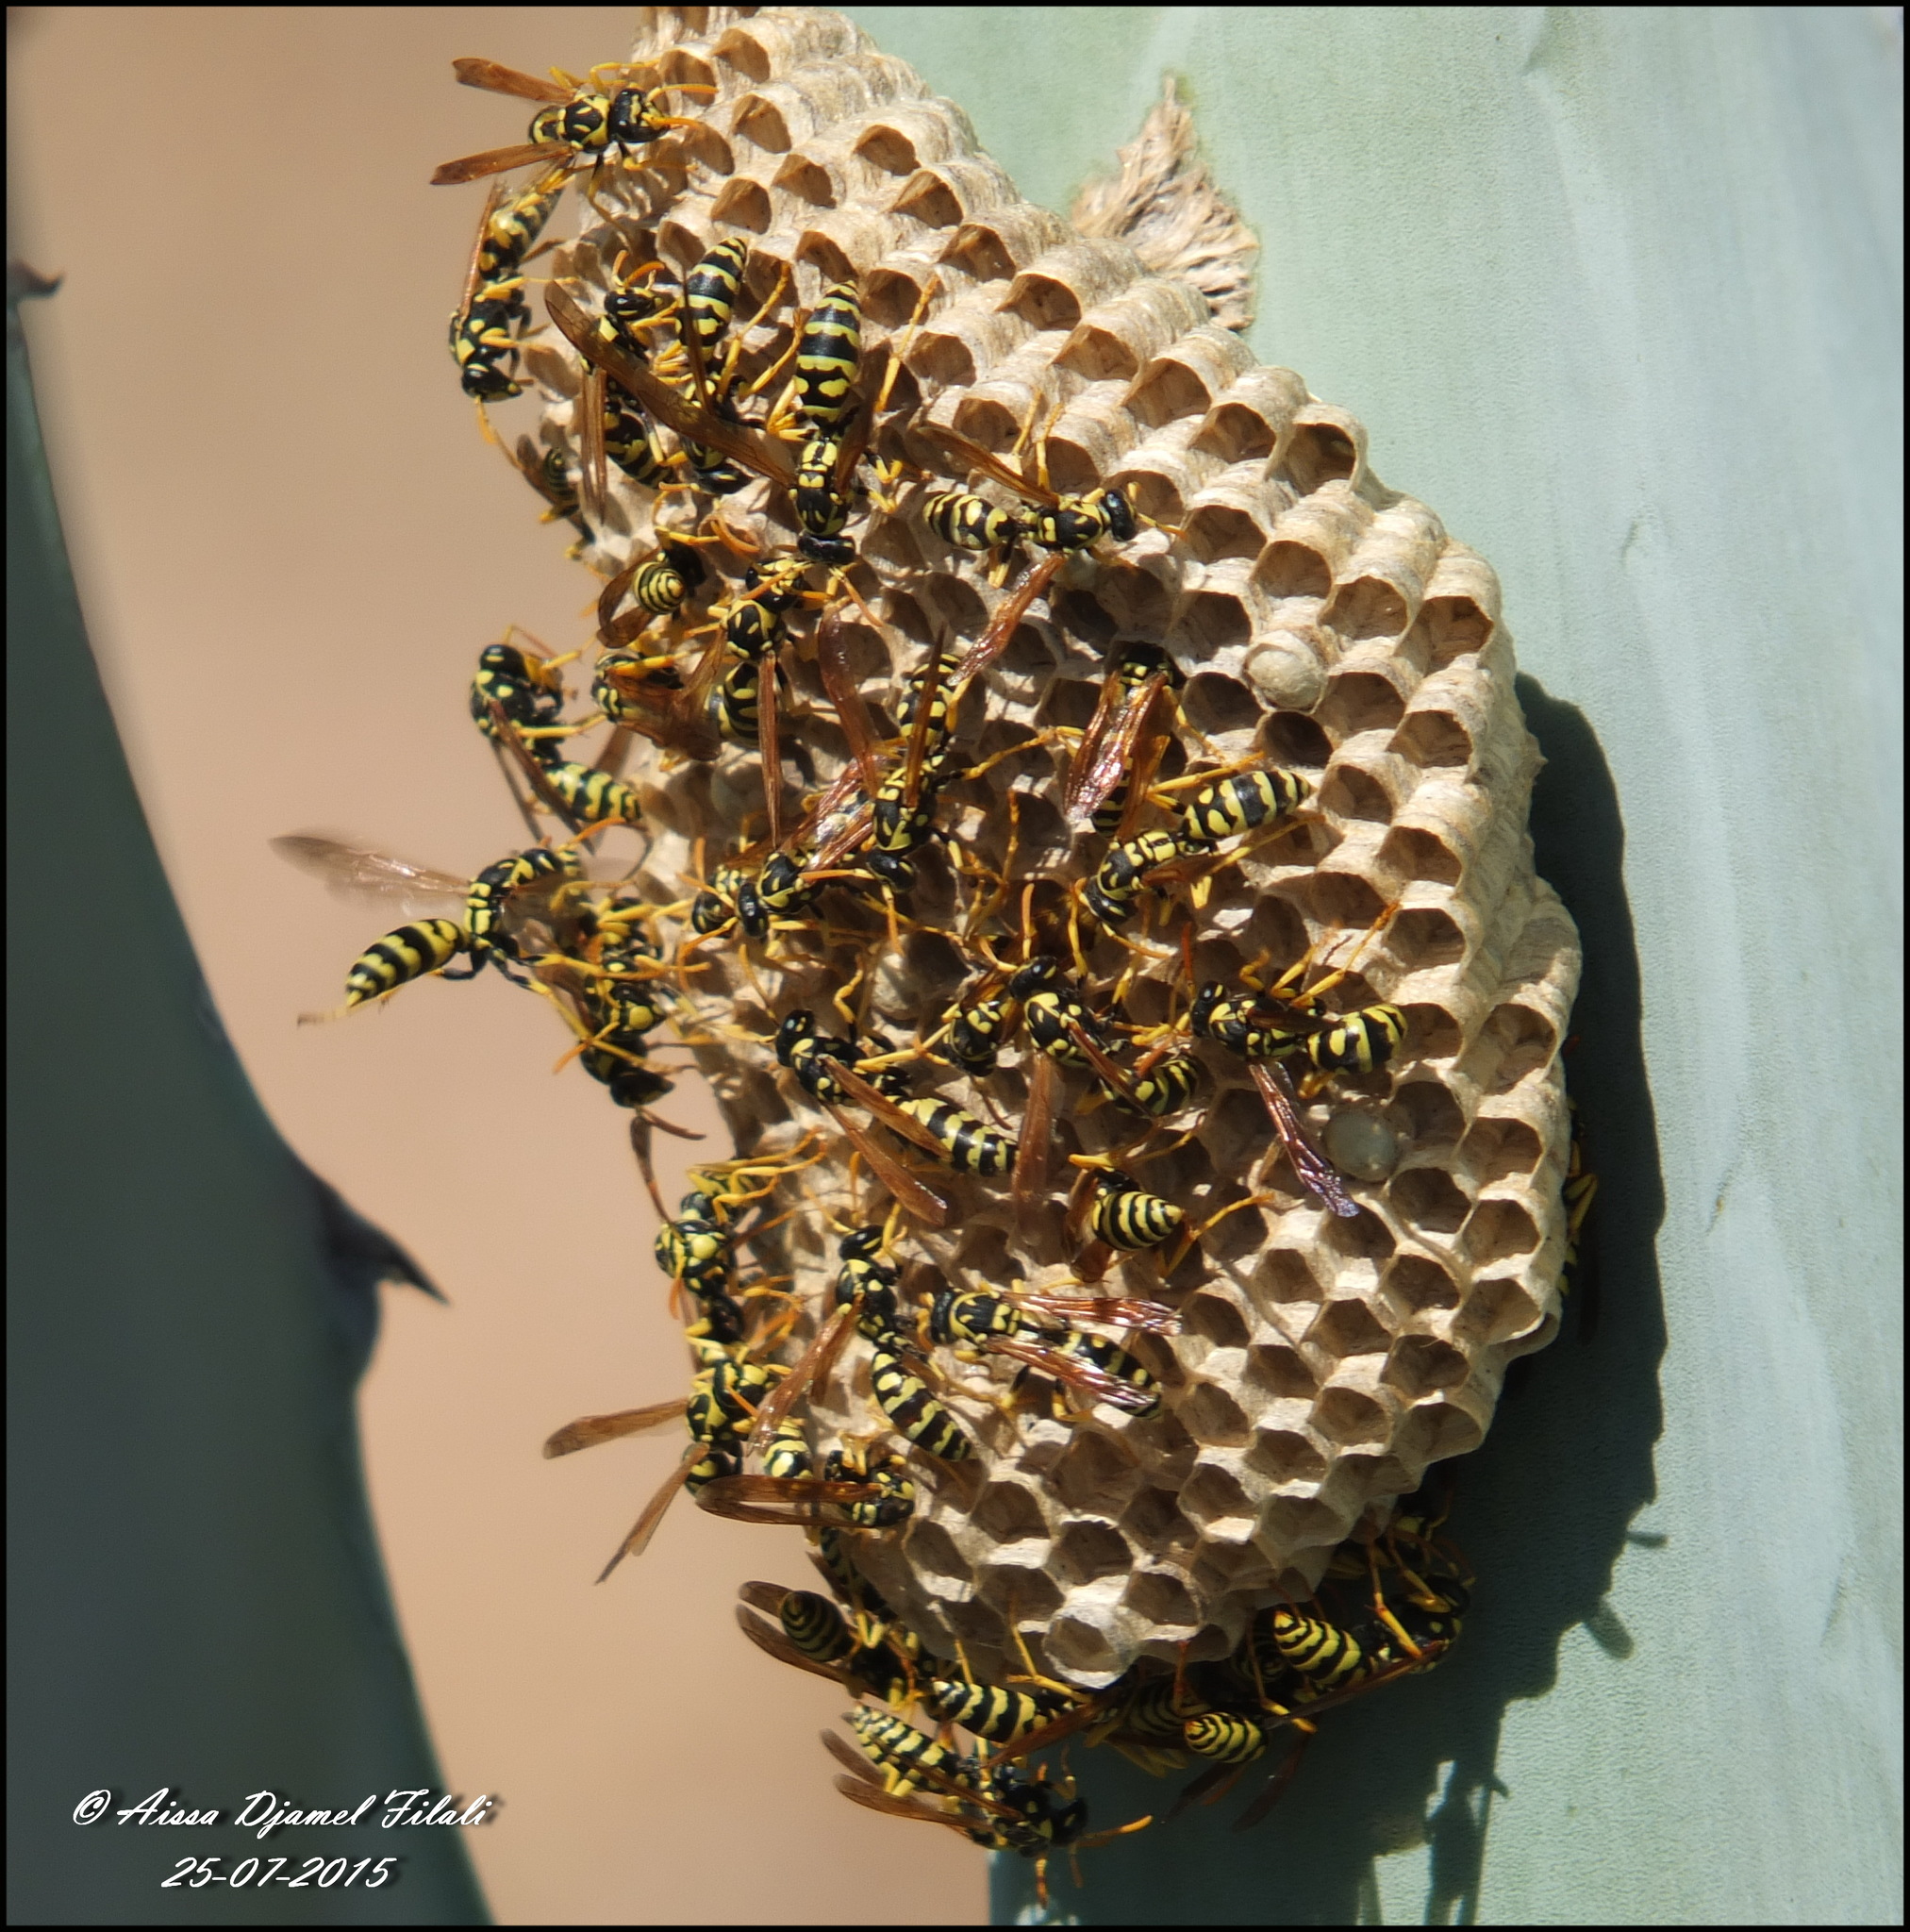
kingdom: Animalia
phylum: Arthropoda
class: Insecta
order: Hymenoptera
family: Eumenidae
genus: Polistes
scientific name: Polistes gallicus
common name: Paper wasp
